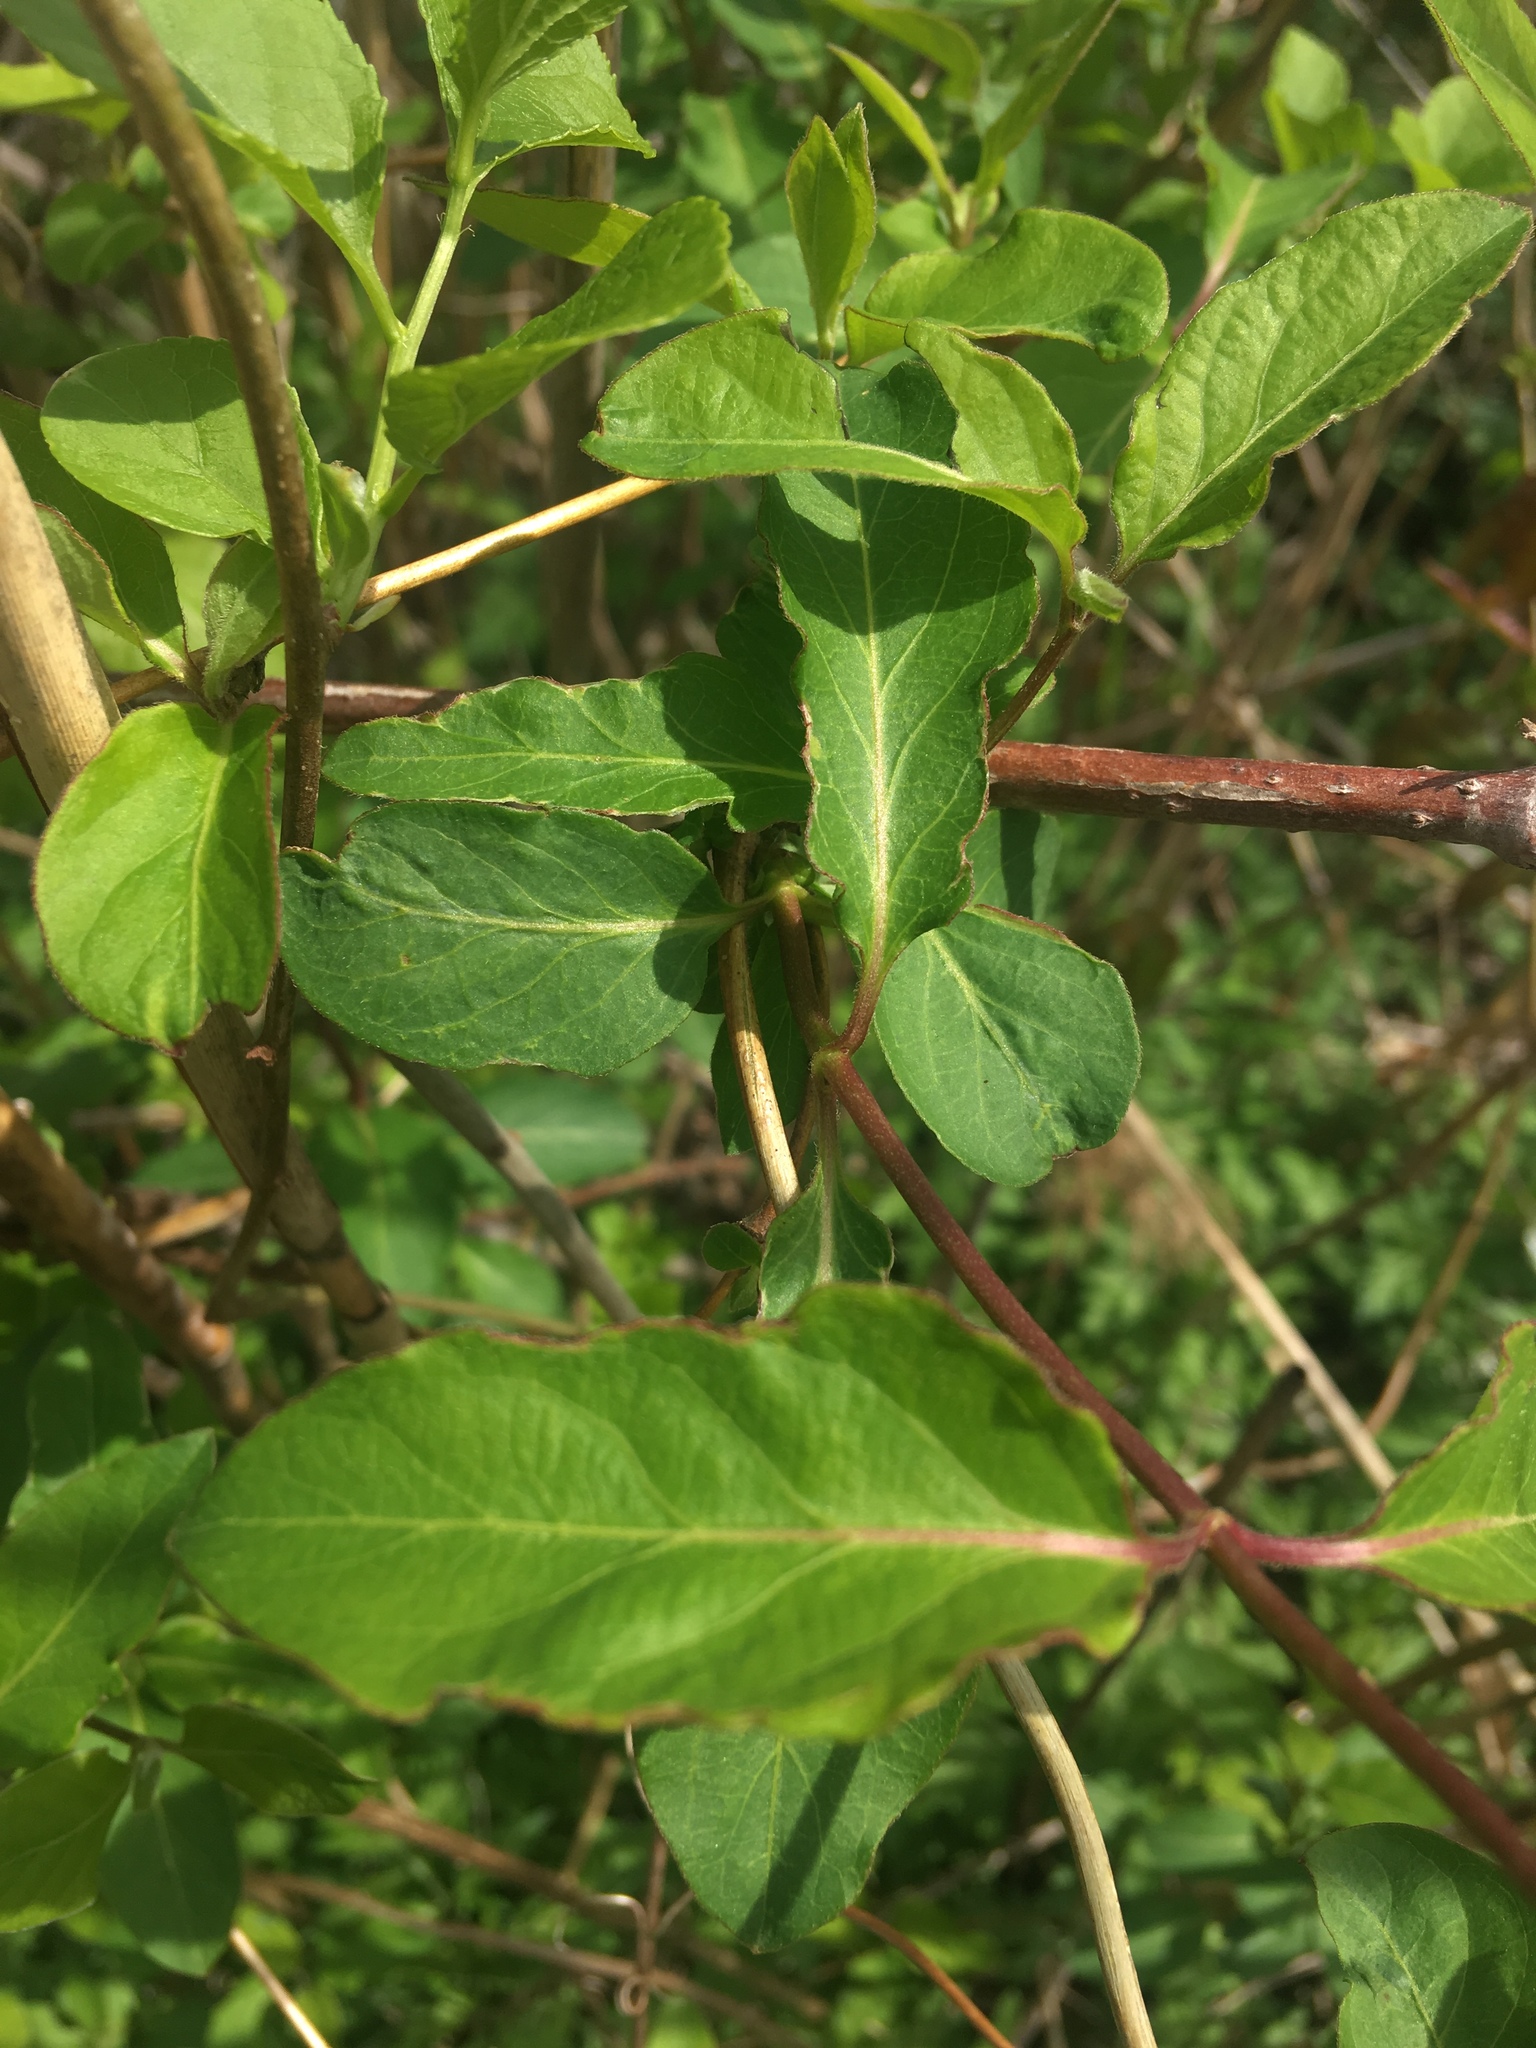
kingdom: Plantae
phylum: Tracheophyta
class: Magnoliopsida
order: Dipsacales
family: Caprifoliaceae
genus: Lonicera
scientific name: Lonicera japonica
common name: Japanese honeysuckle
